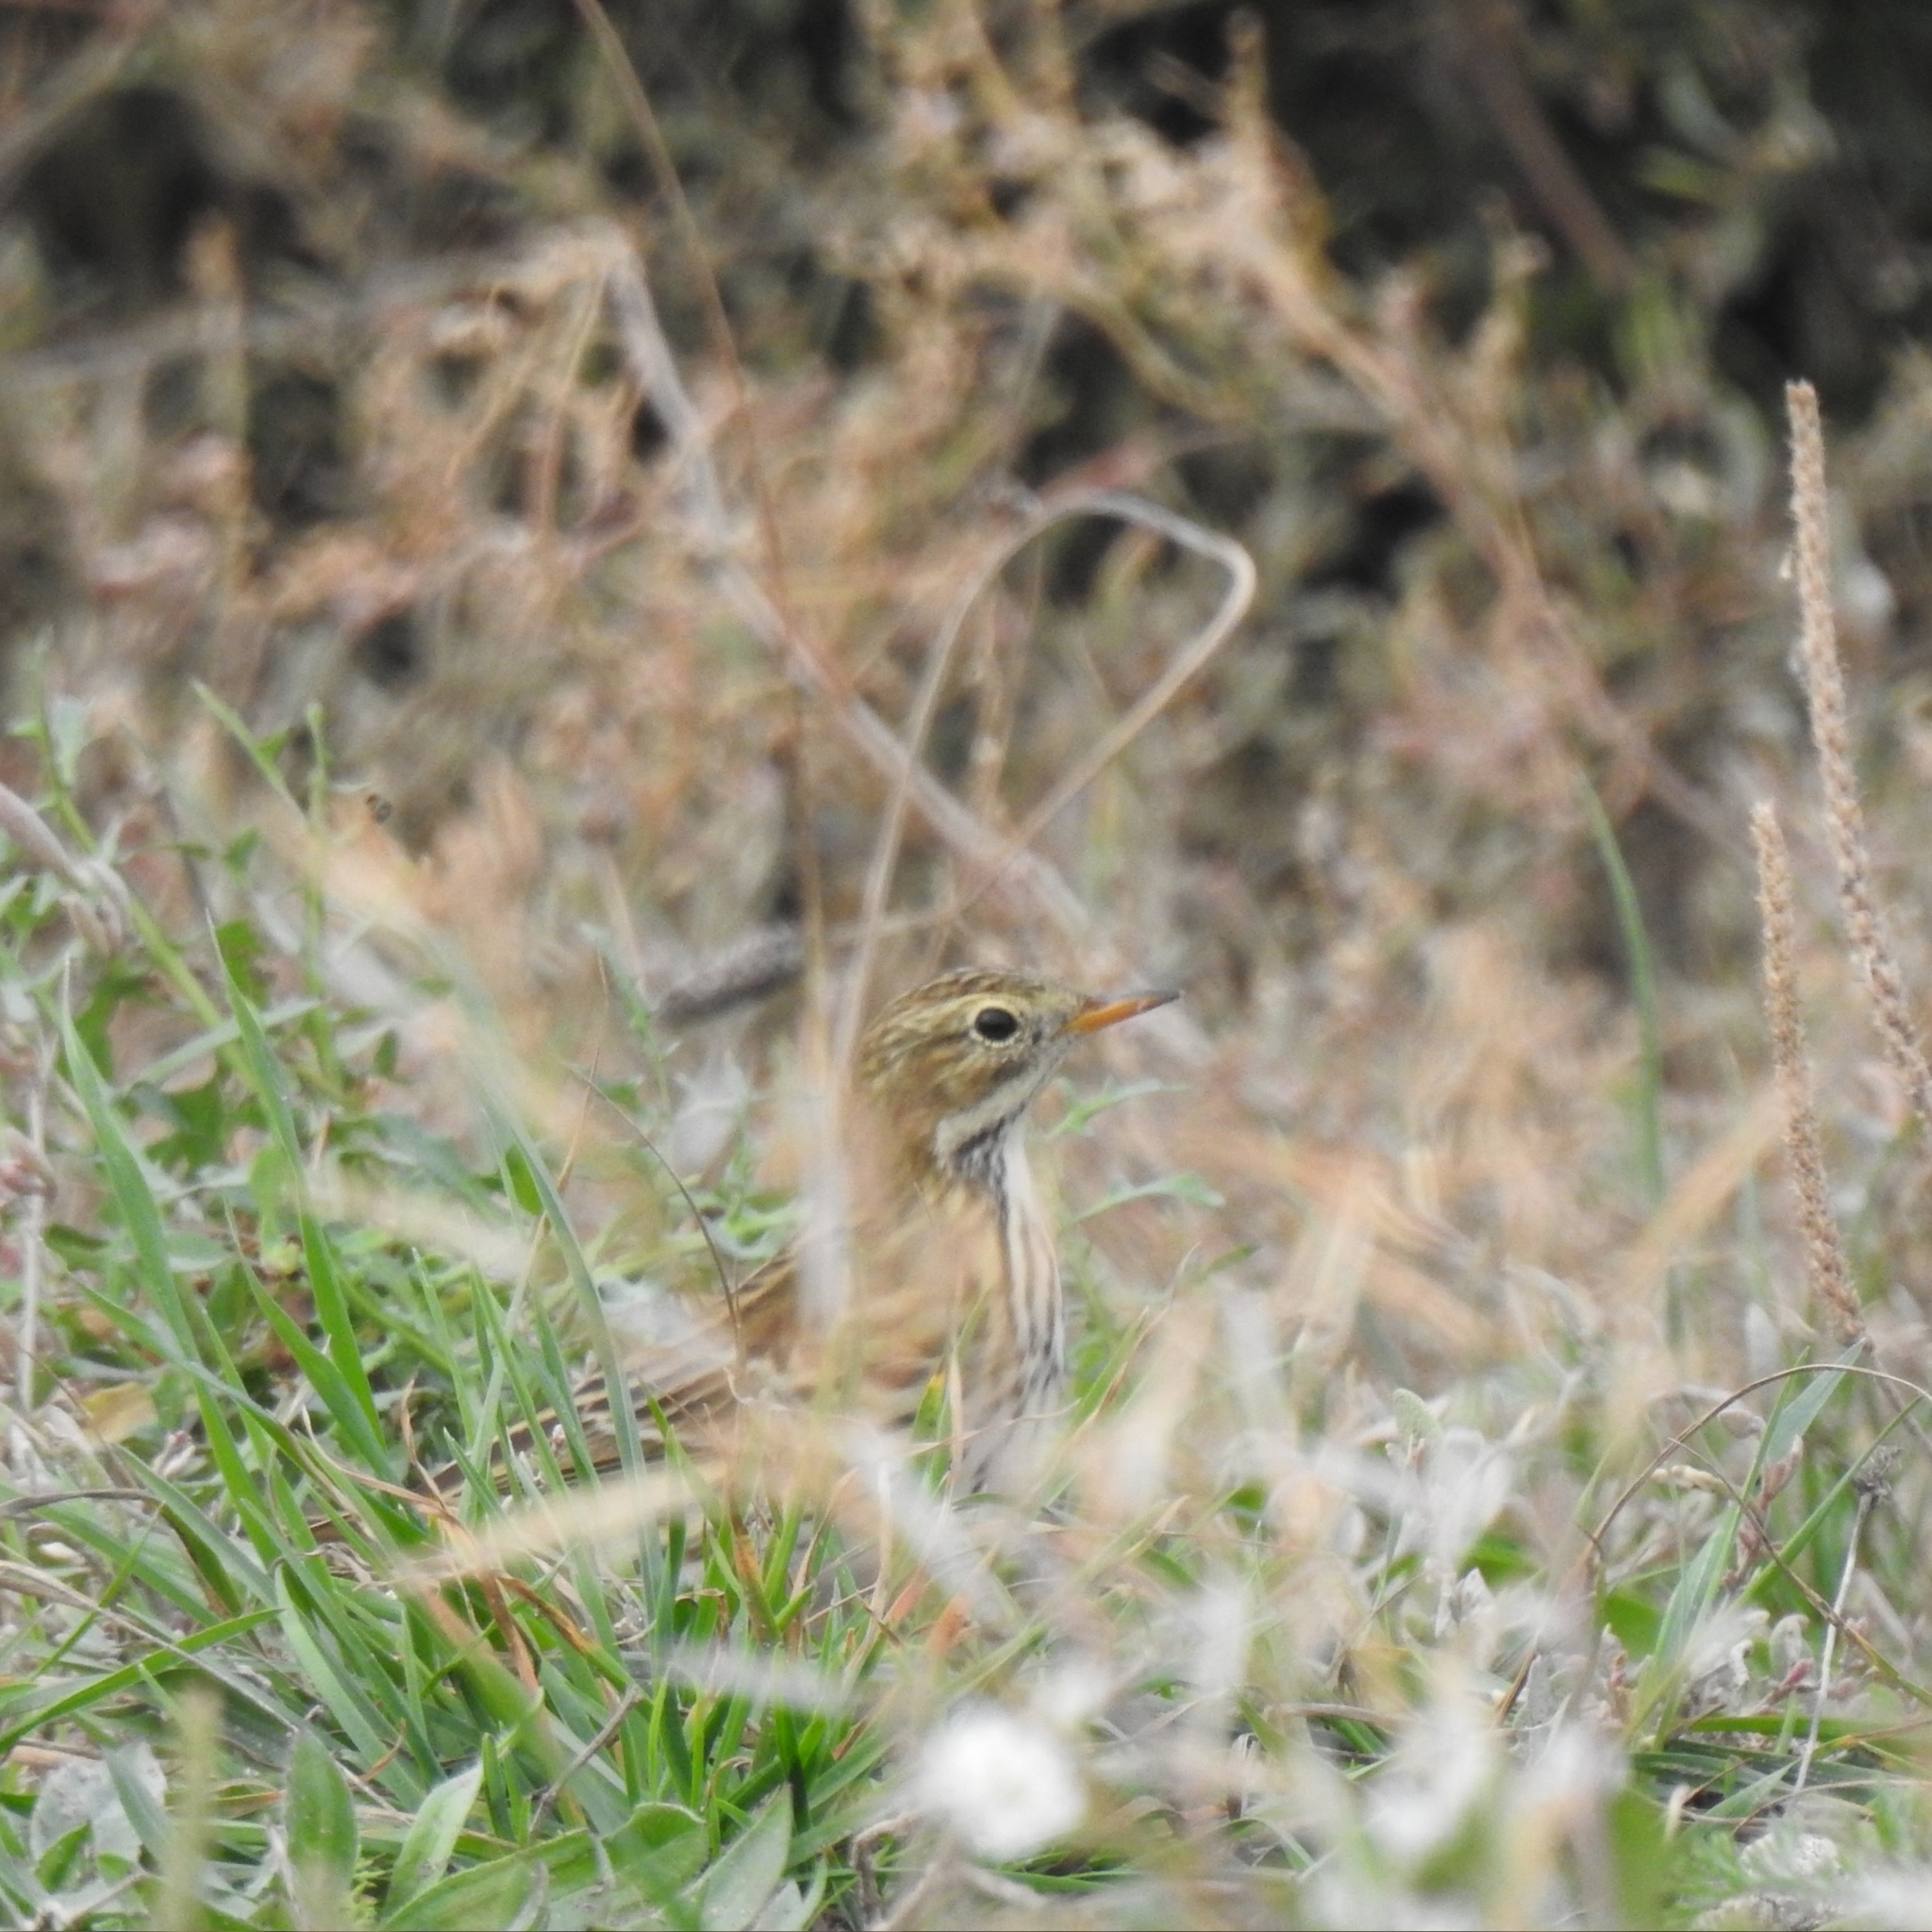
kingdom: Animalia
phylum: Chordata
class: Aves
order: Passeriformes
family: Motacillidae
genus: Anthus
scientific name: Anthus pratensis
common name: Meadow pipit
